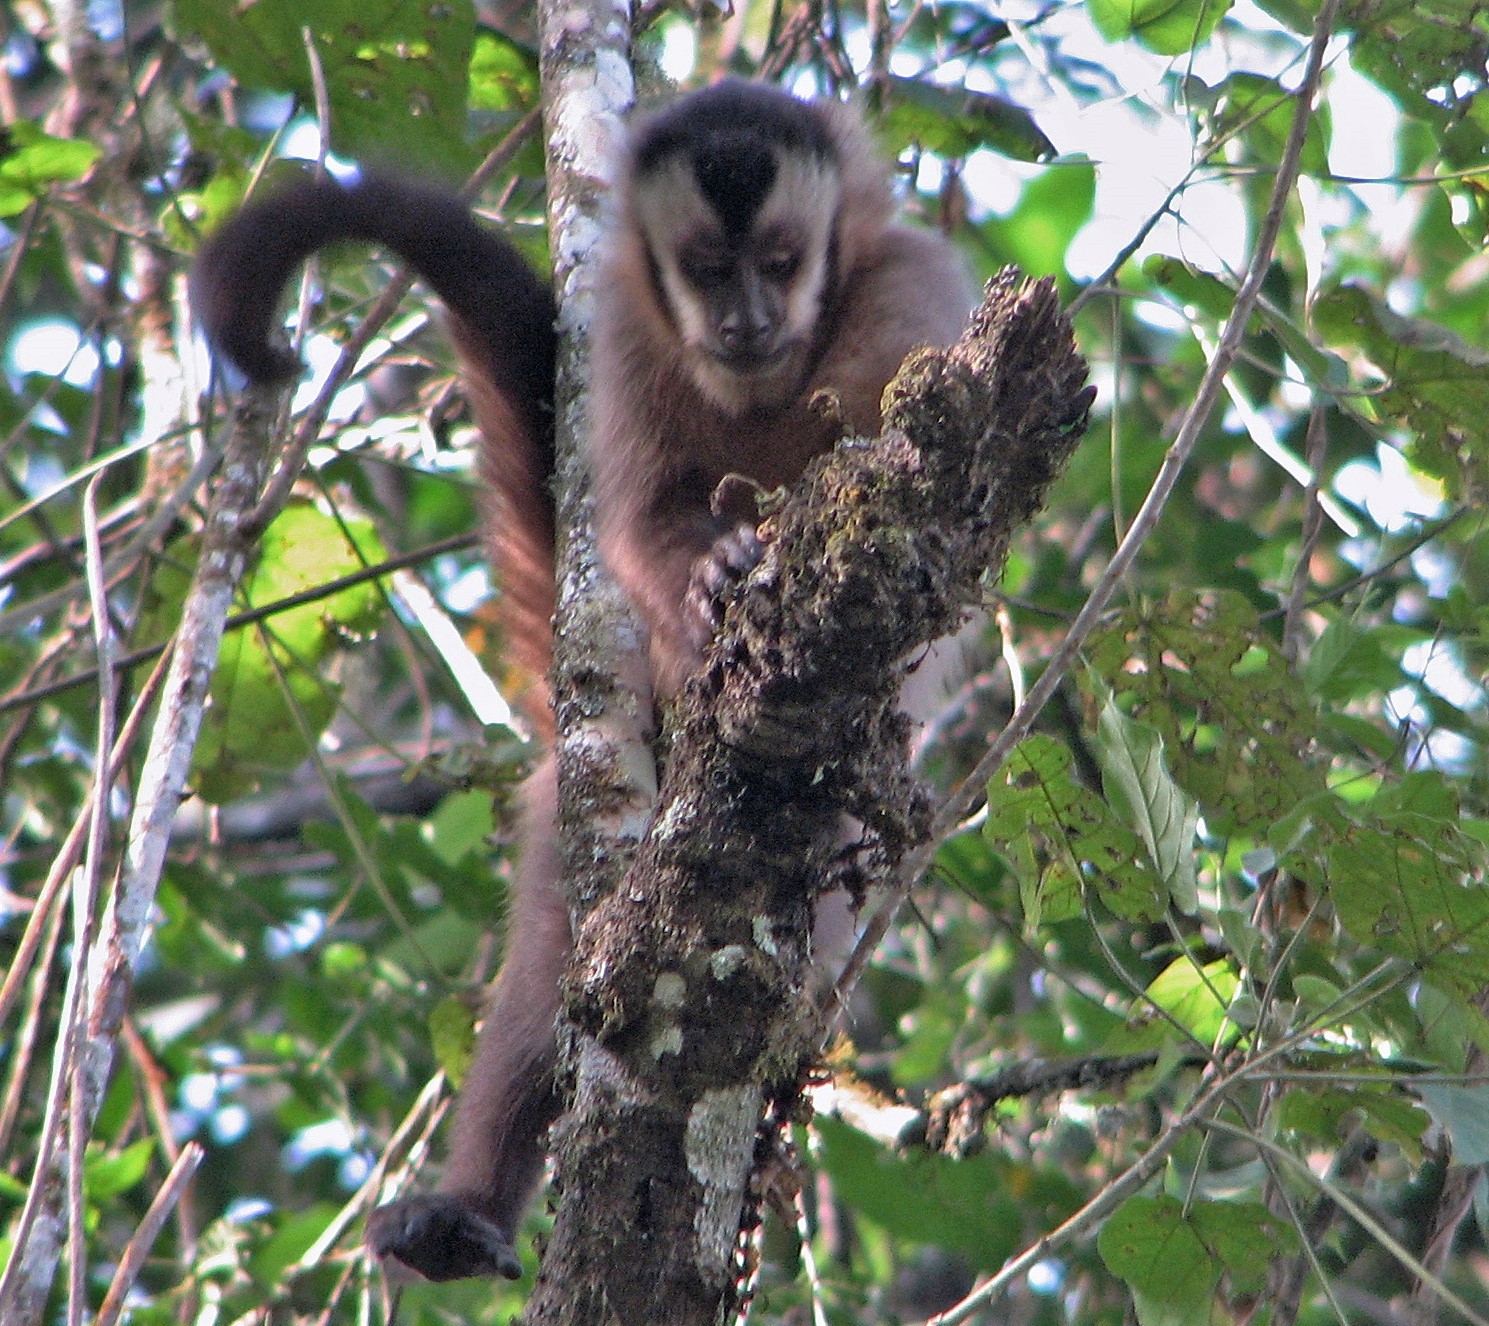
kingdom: Animalia
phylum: Chordata
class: Mammalia
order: Primates
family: Cebidae
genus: Sapajus
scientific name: Sapajus cay
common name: Hooded capuchin
